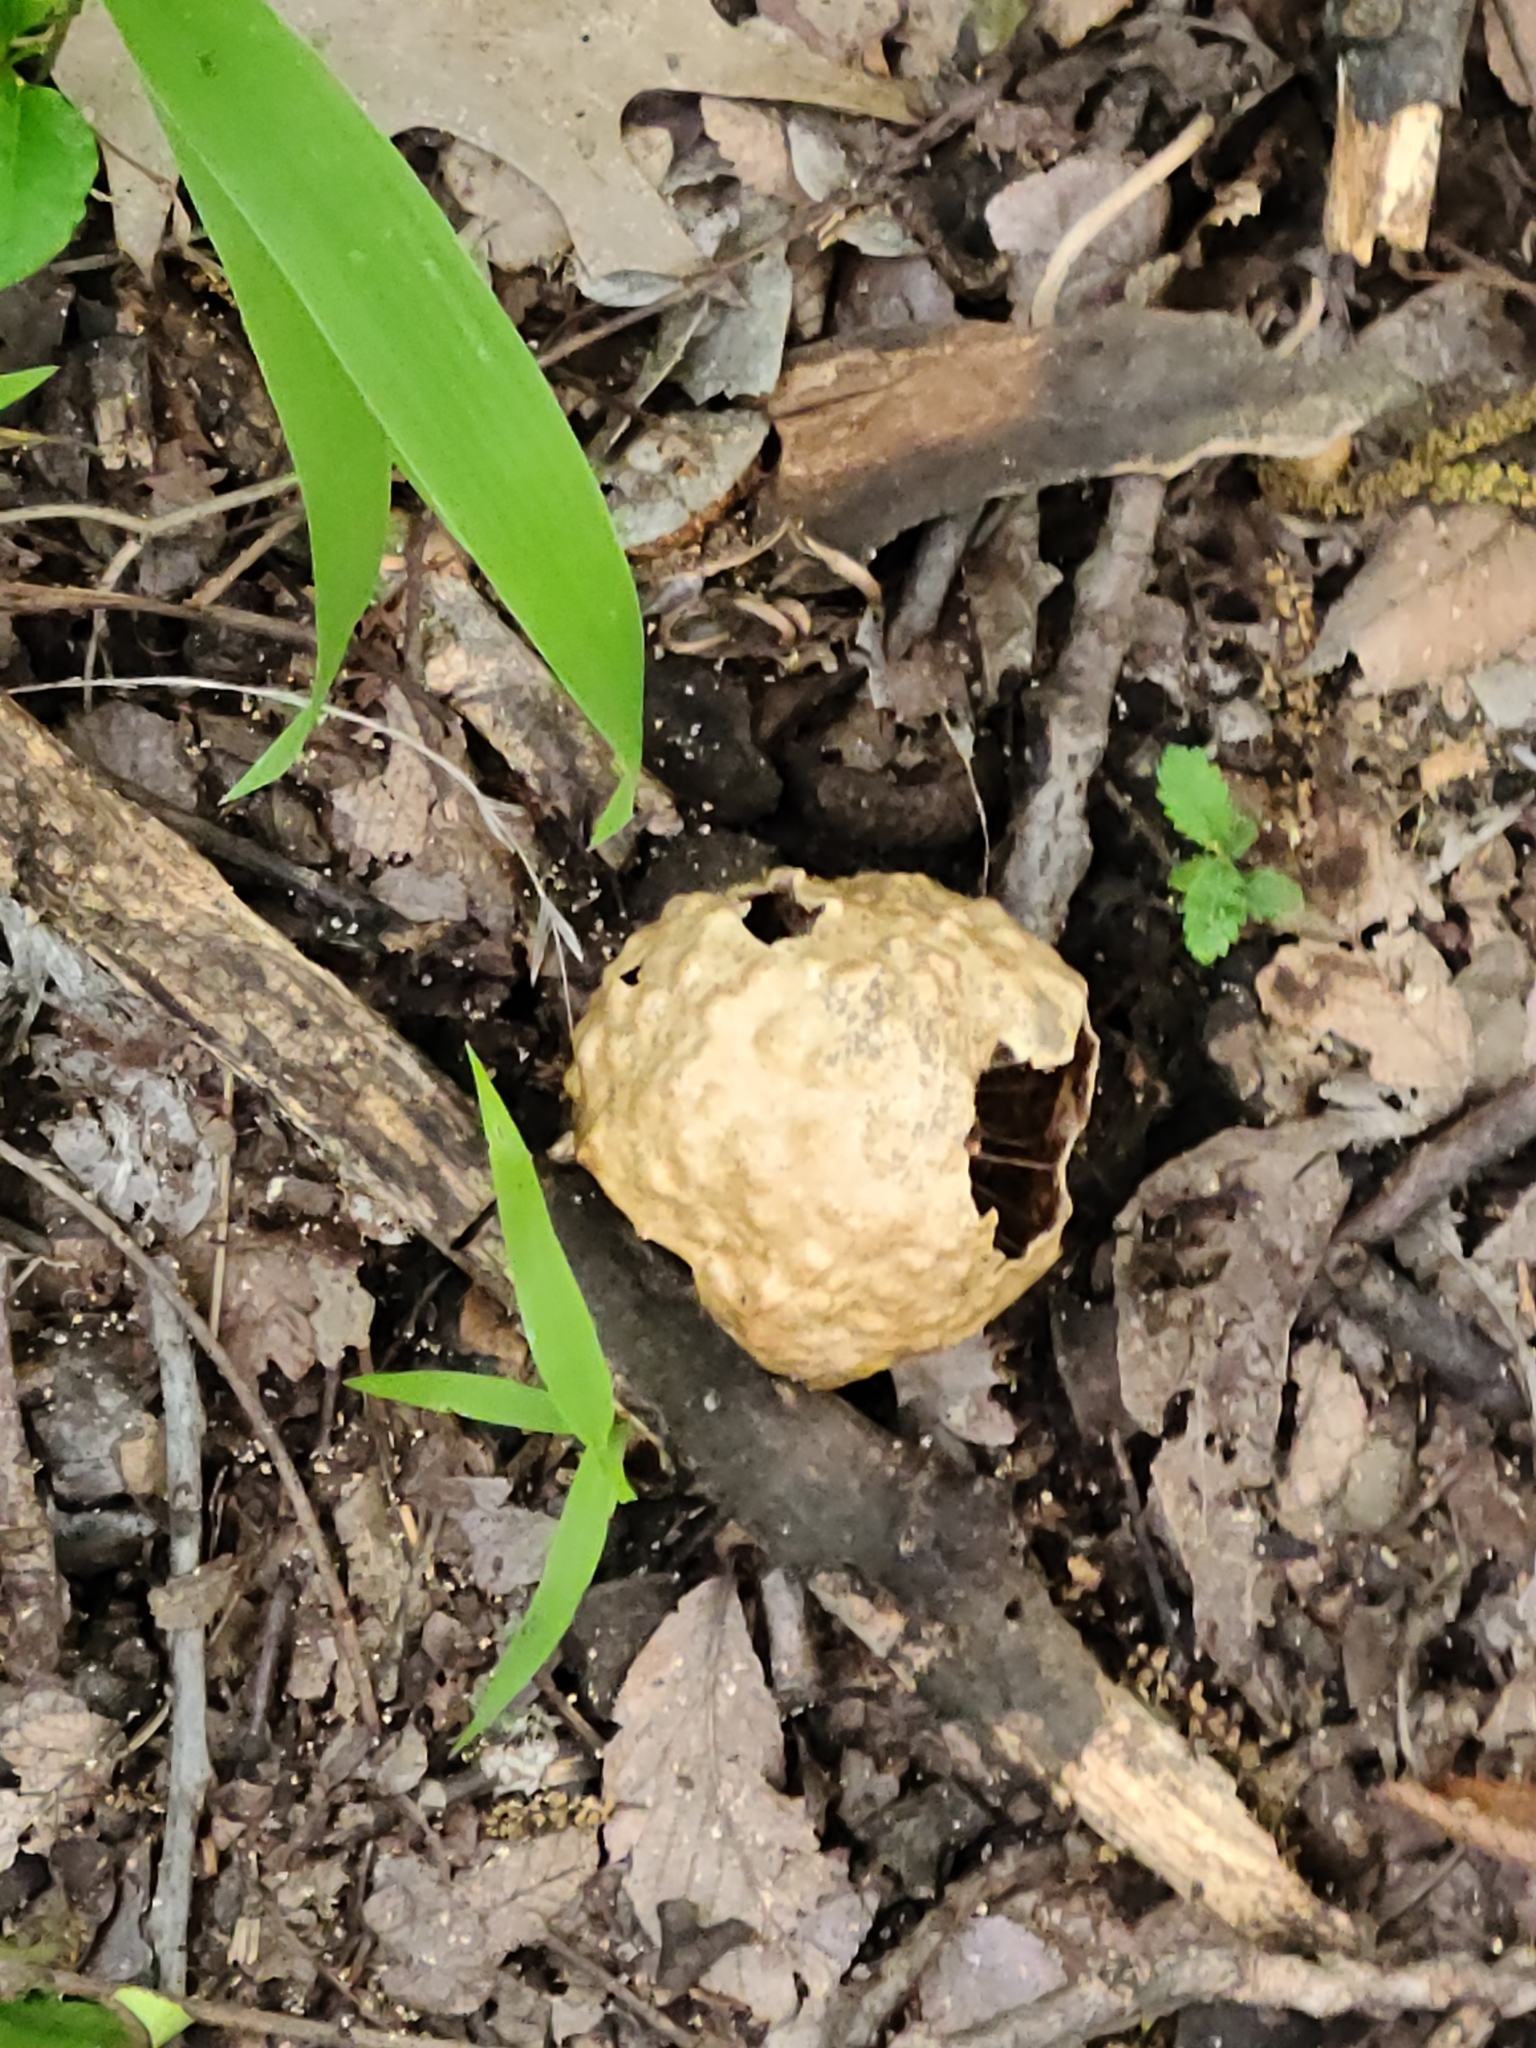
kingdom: Animalia
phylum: Arthropoda
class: Insecta
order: Hymenoptera
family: Cynipidae
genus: Amphibolips
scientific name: Amphibolips
